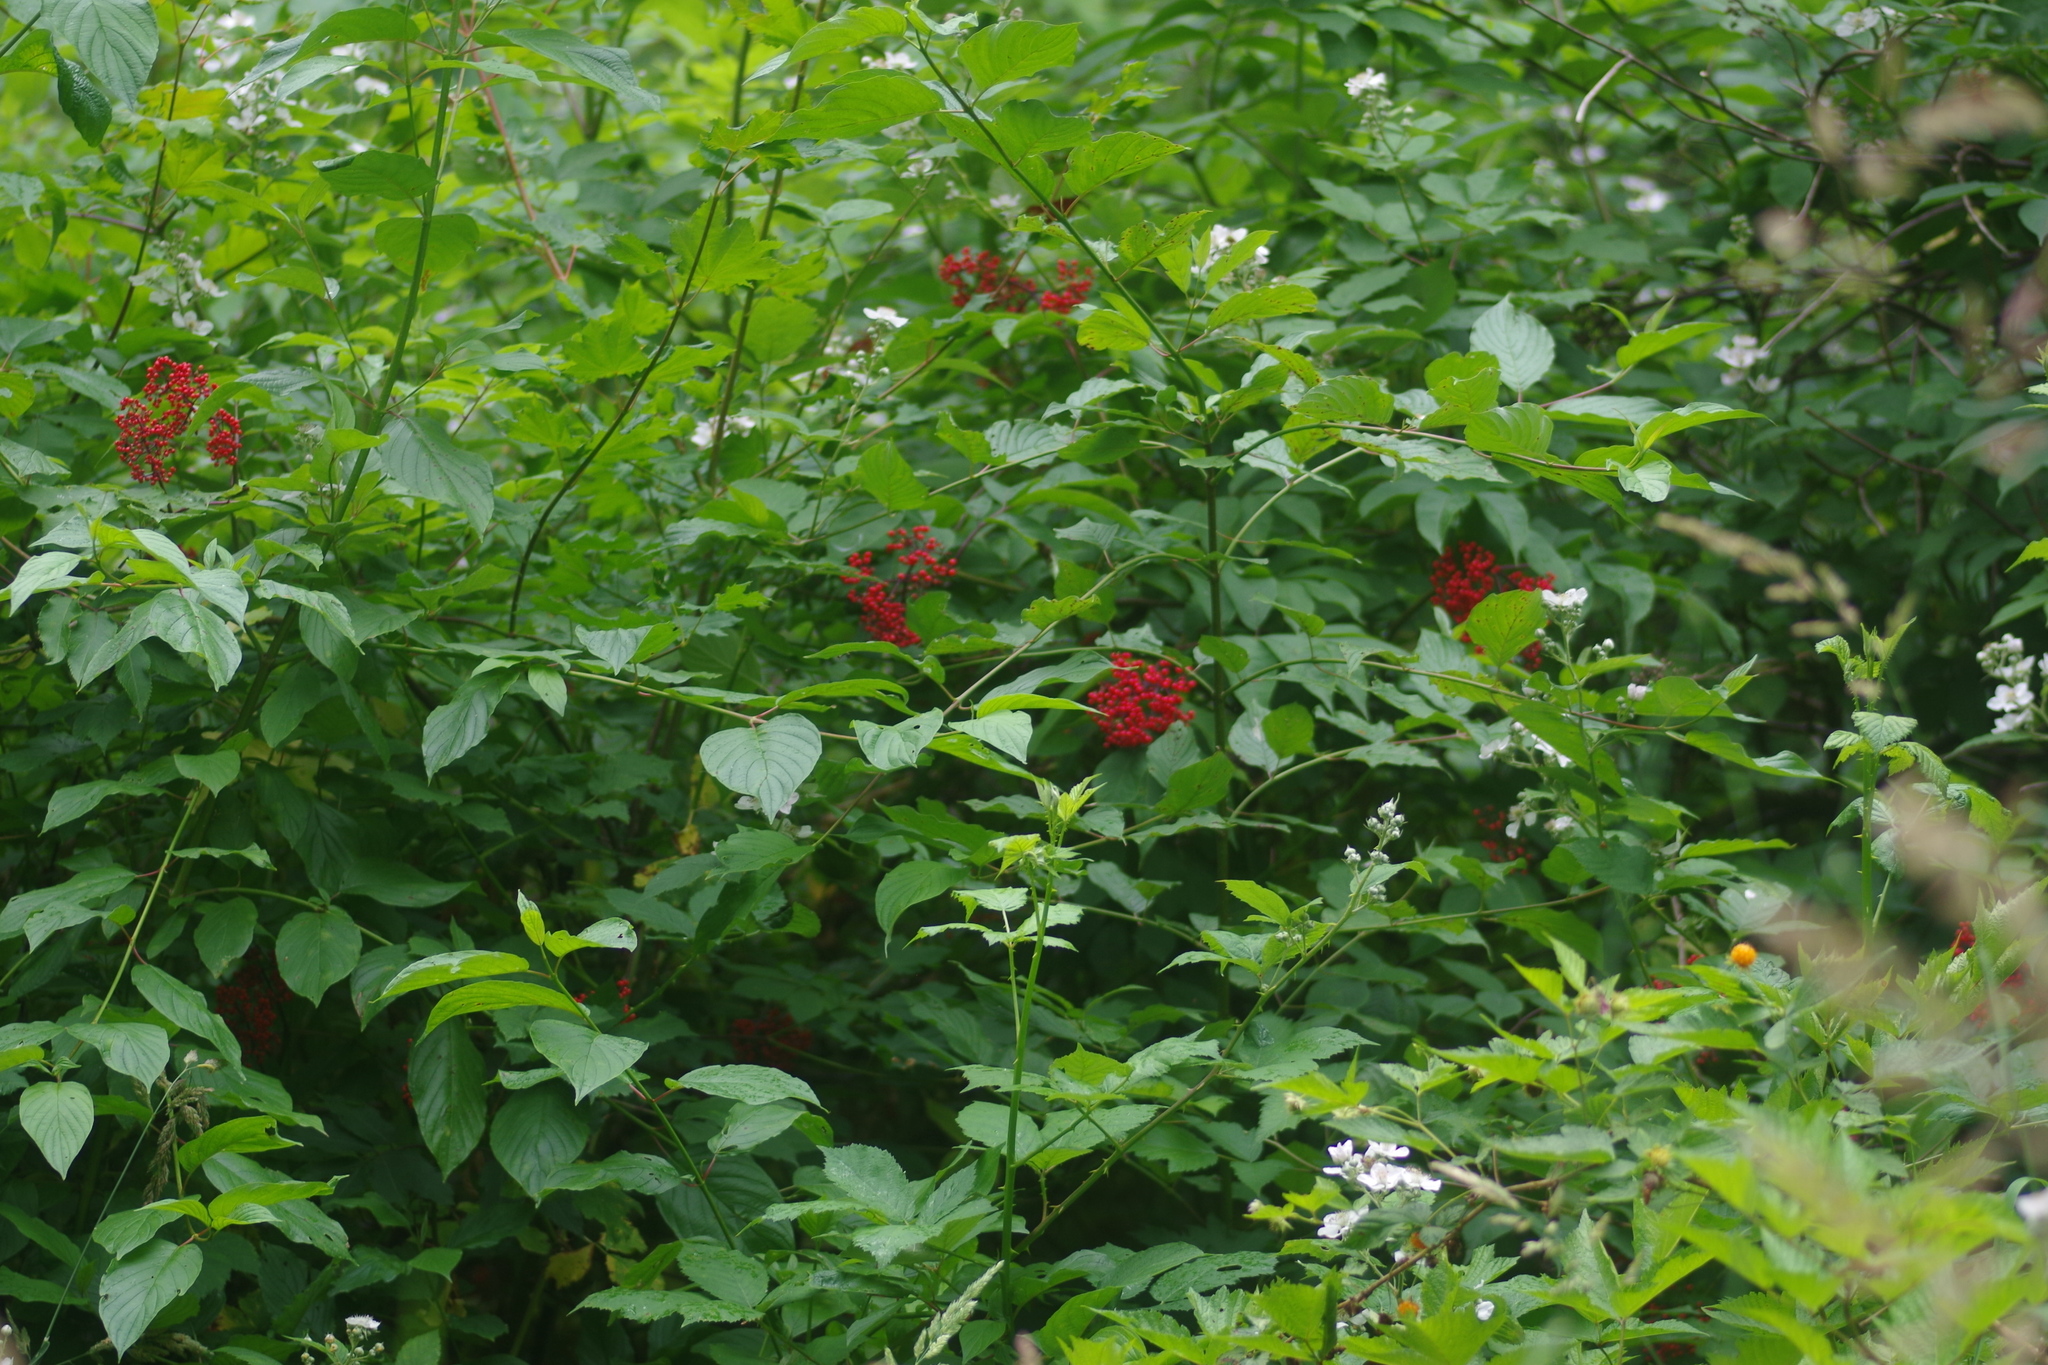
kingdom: Plantae
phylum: Tracheophyta
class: Magnoliopsida
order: Dipsacales
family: Viburnaceae
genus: Sambucus
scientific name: Sambucus racemosa
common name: Red-berried elder
